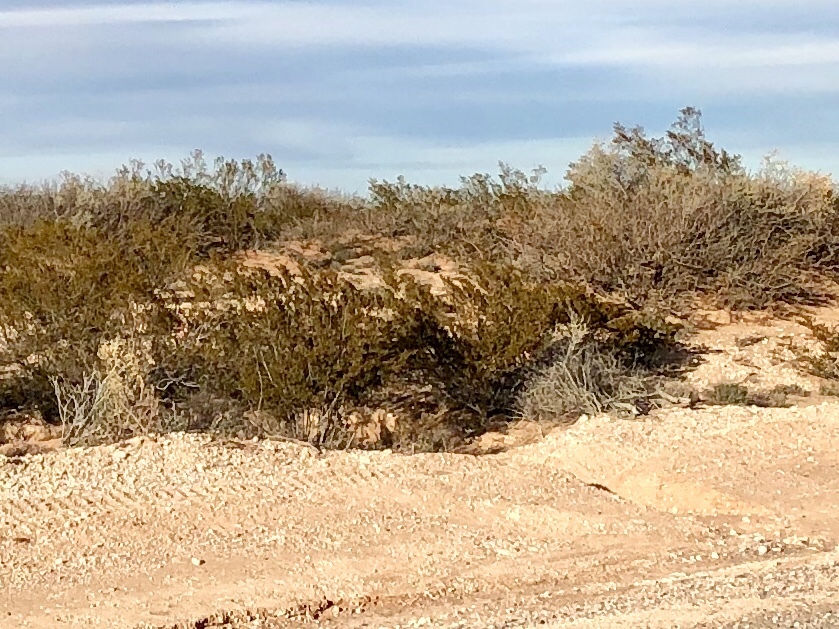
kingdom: Plantae
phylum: Tracheophyta
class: Magnoliopsida
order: Zygophyllales
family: Zygophyllaceae
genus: Larrea
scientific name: Larrea tridentata
